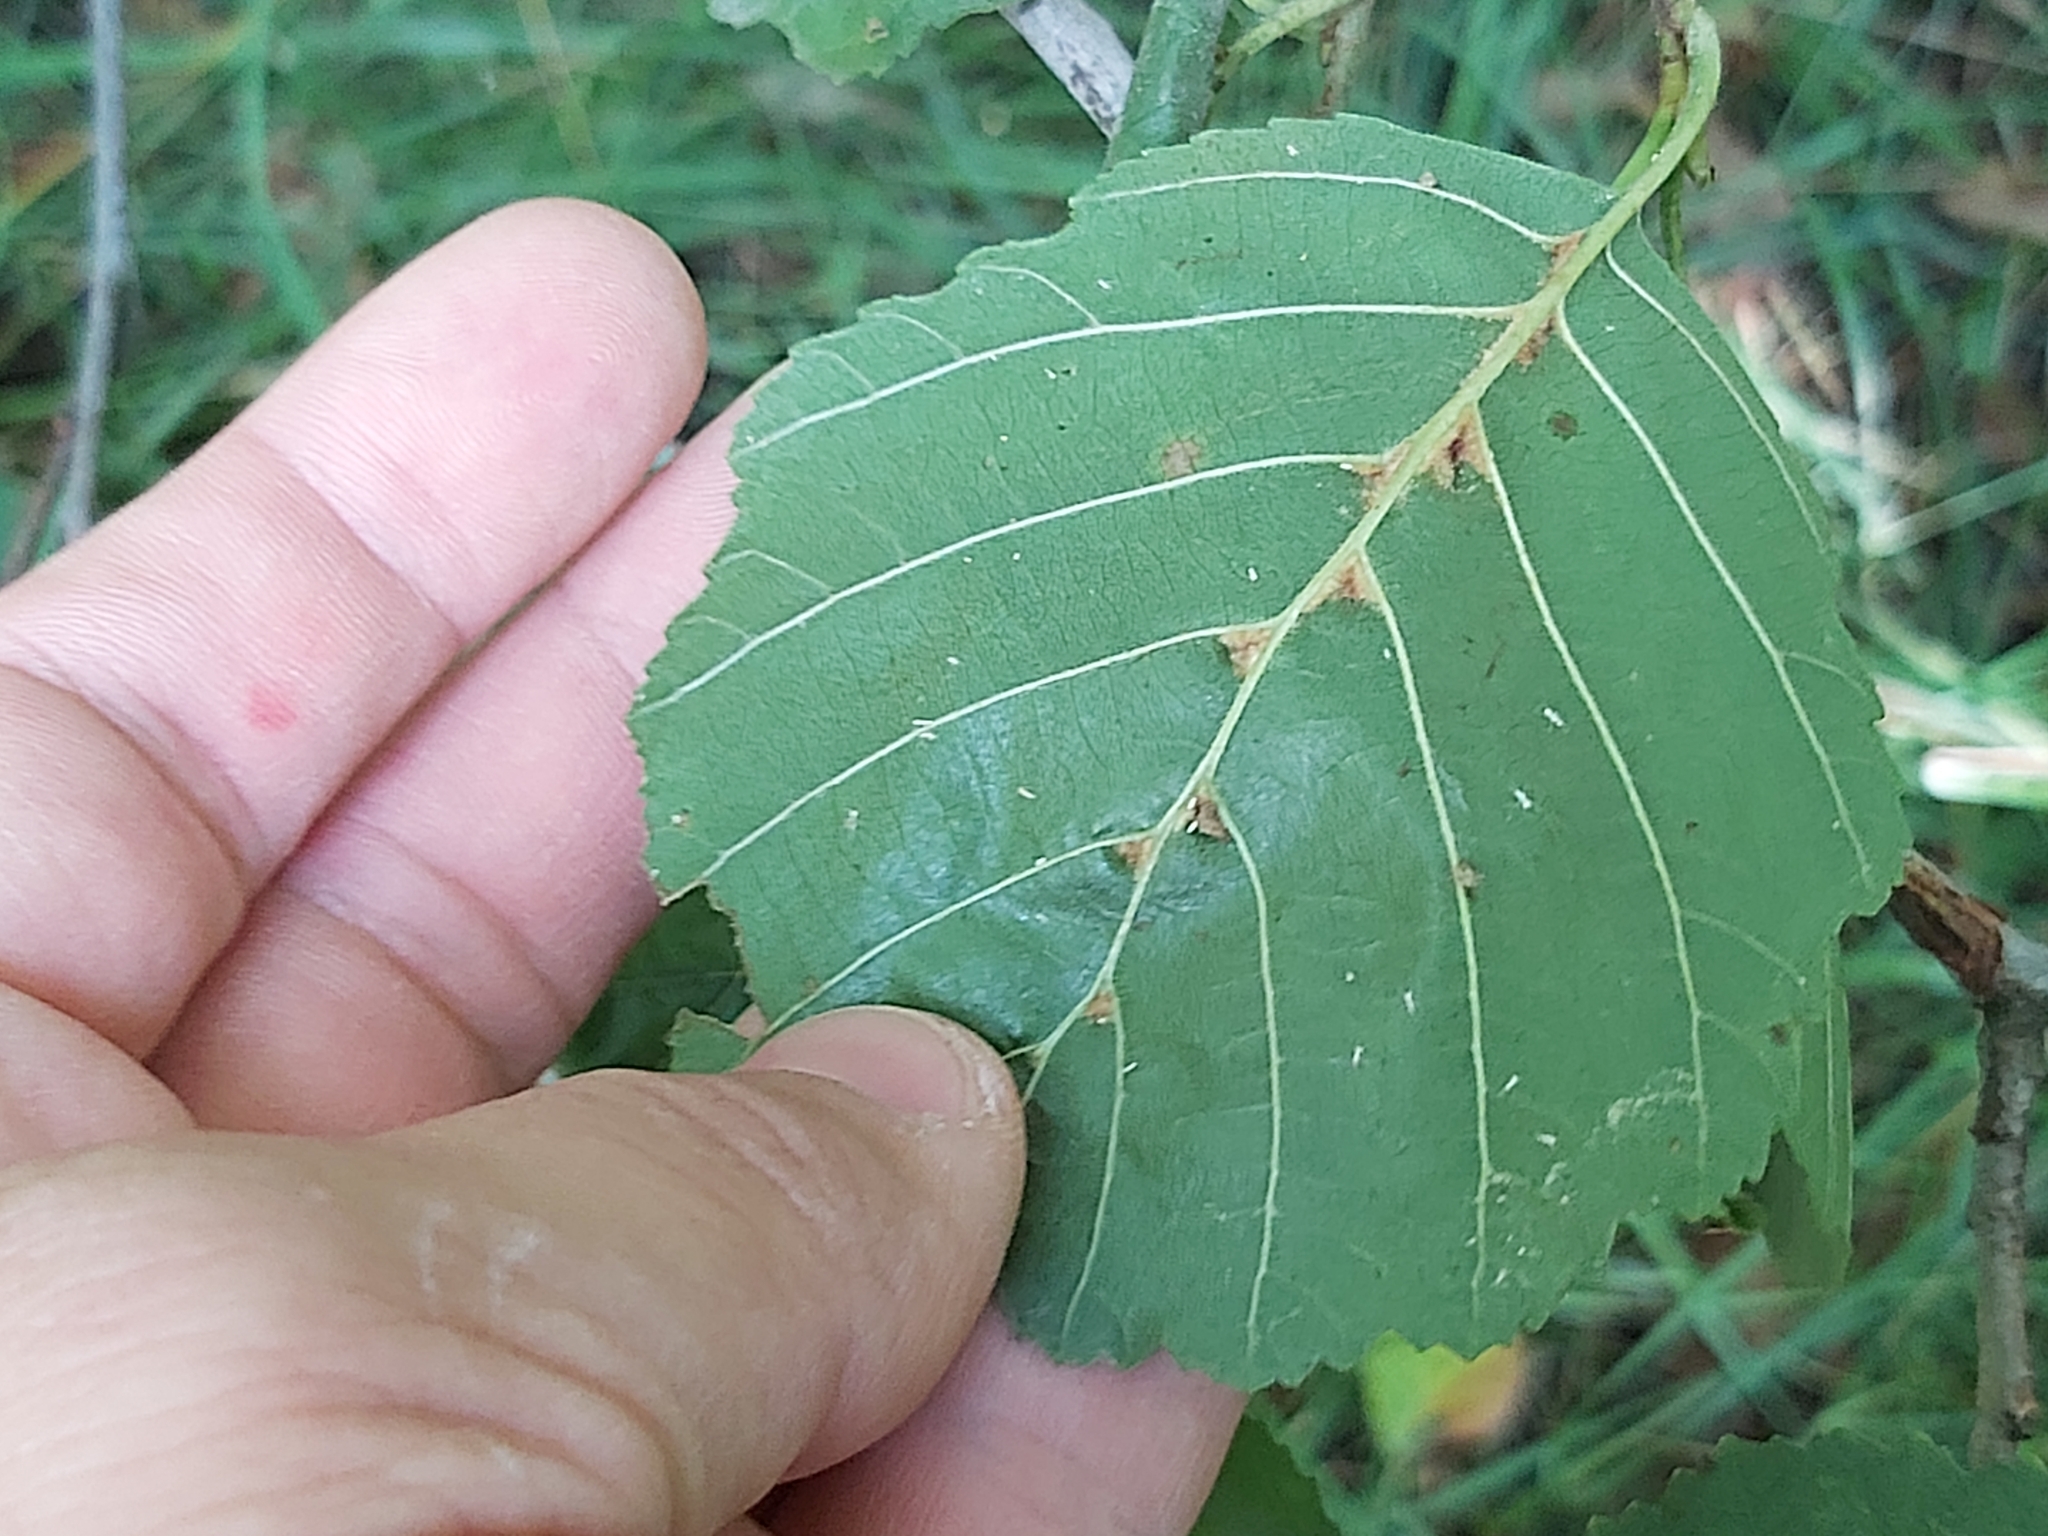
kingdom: Animalia
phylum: Arthropoda
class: Arachnida
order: Trombidiformes
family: Eriophyidae
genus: Eriophyes
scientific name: Eriophyes inangulis
